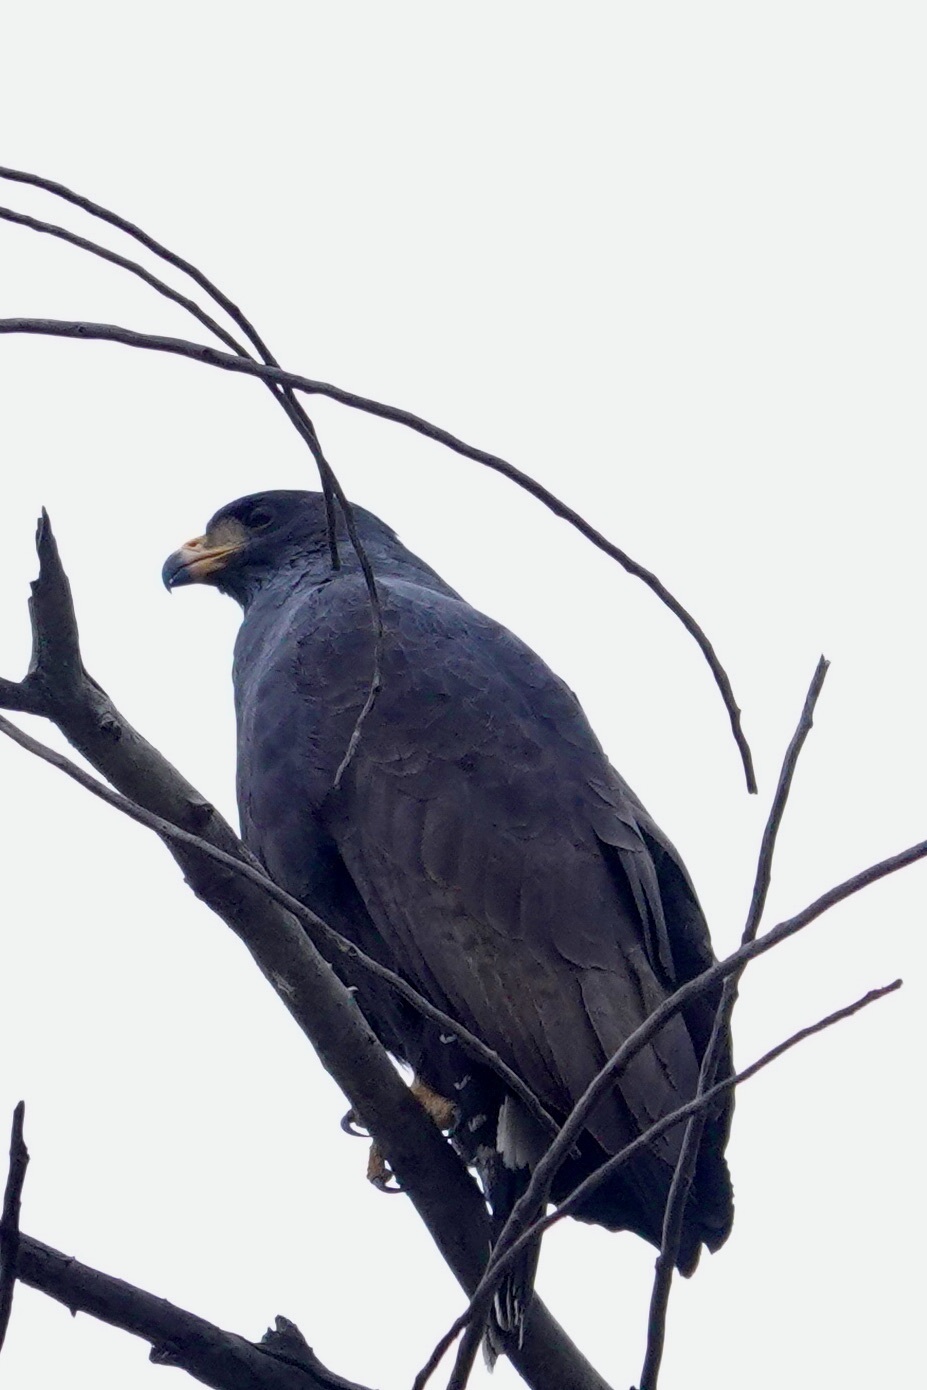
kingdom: Animalia
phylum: Chordata
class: Aves
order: Accipitriformes
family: Accipitridae
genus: Buteogallus
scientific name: Buteogallus anthracinus
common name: Common black hawk
